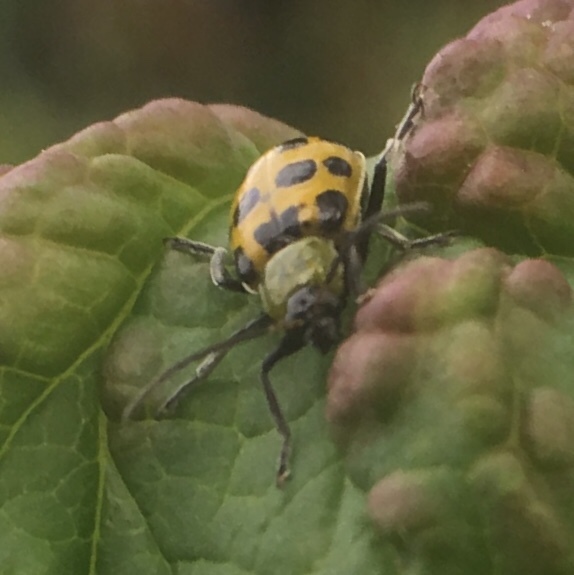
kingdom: Animalia
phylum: Arthropoda
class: Insecta
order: Coleoptera
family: Chrysomelidae
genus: Diabrotica
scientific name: Diabrotica undecimpunctata
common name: Spotted cucumber beetle
